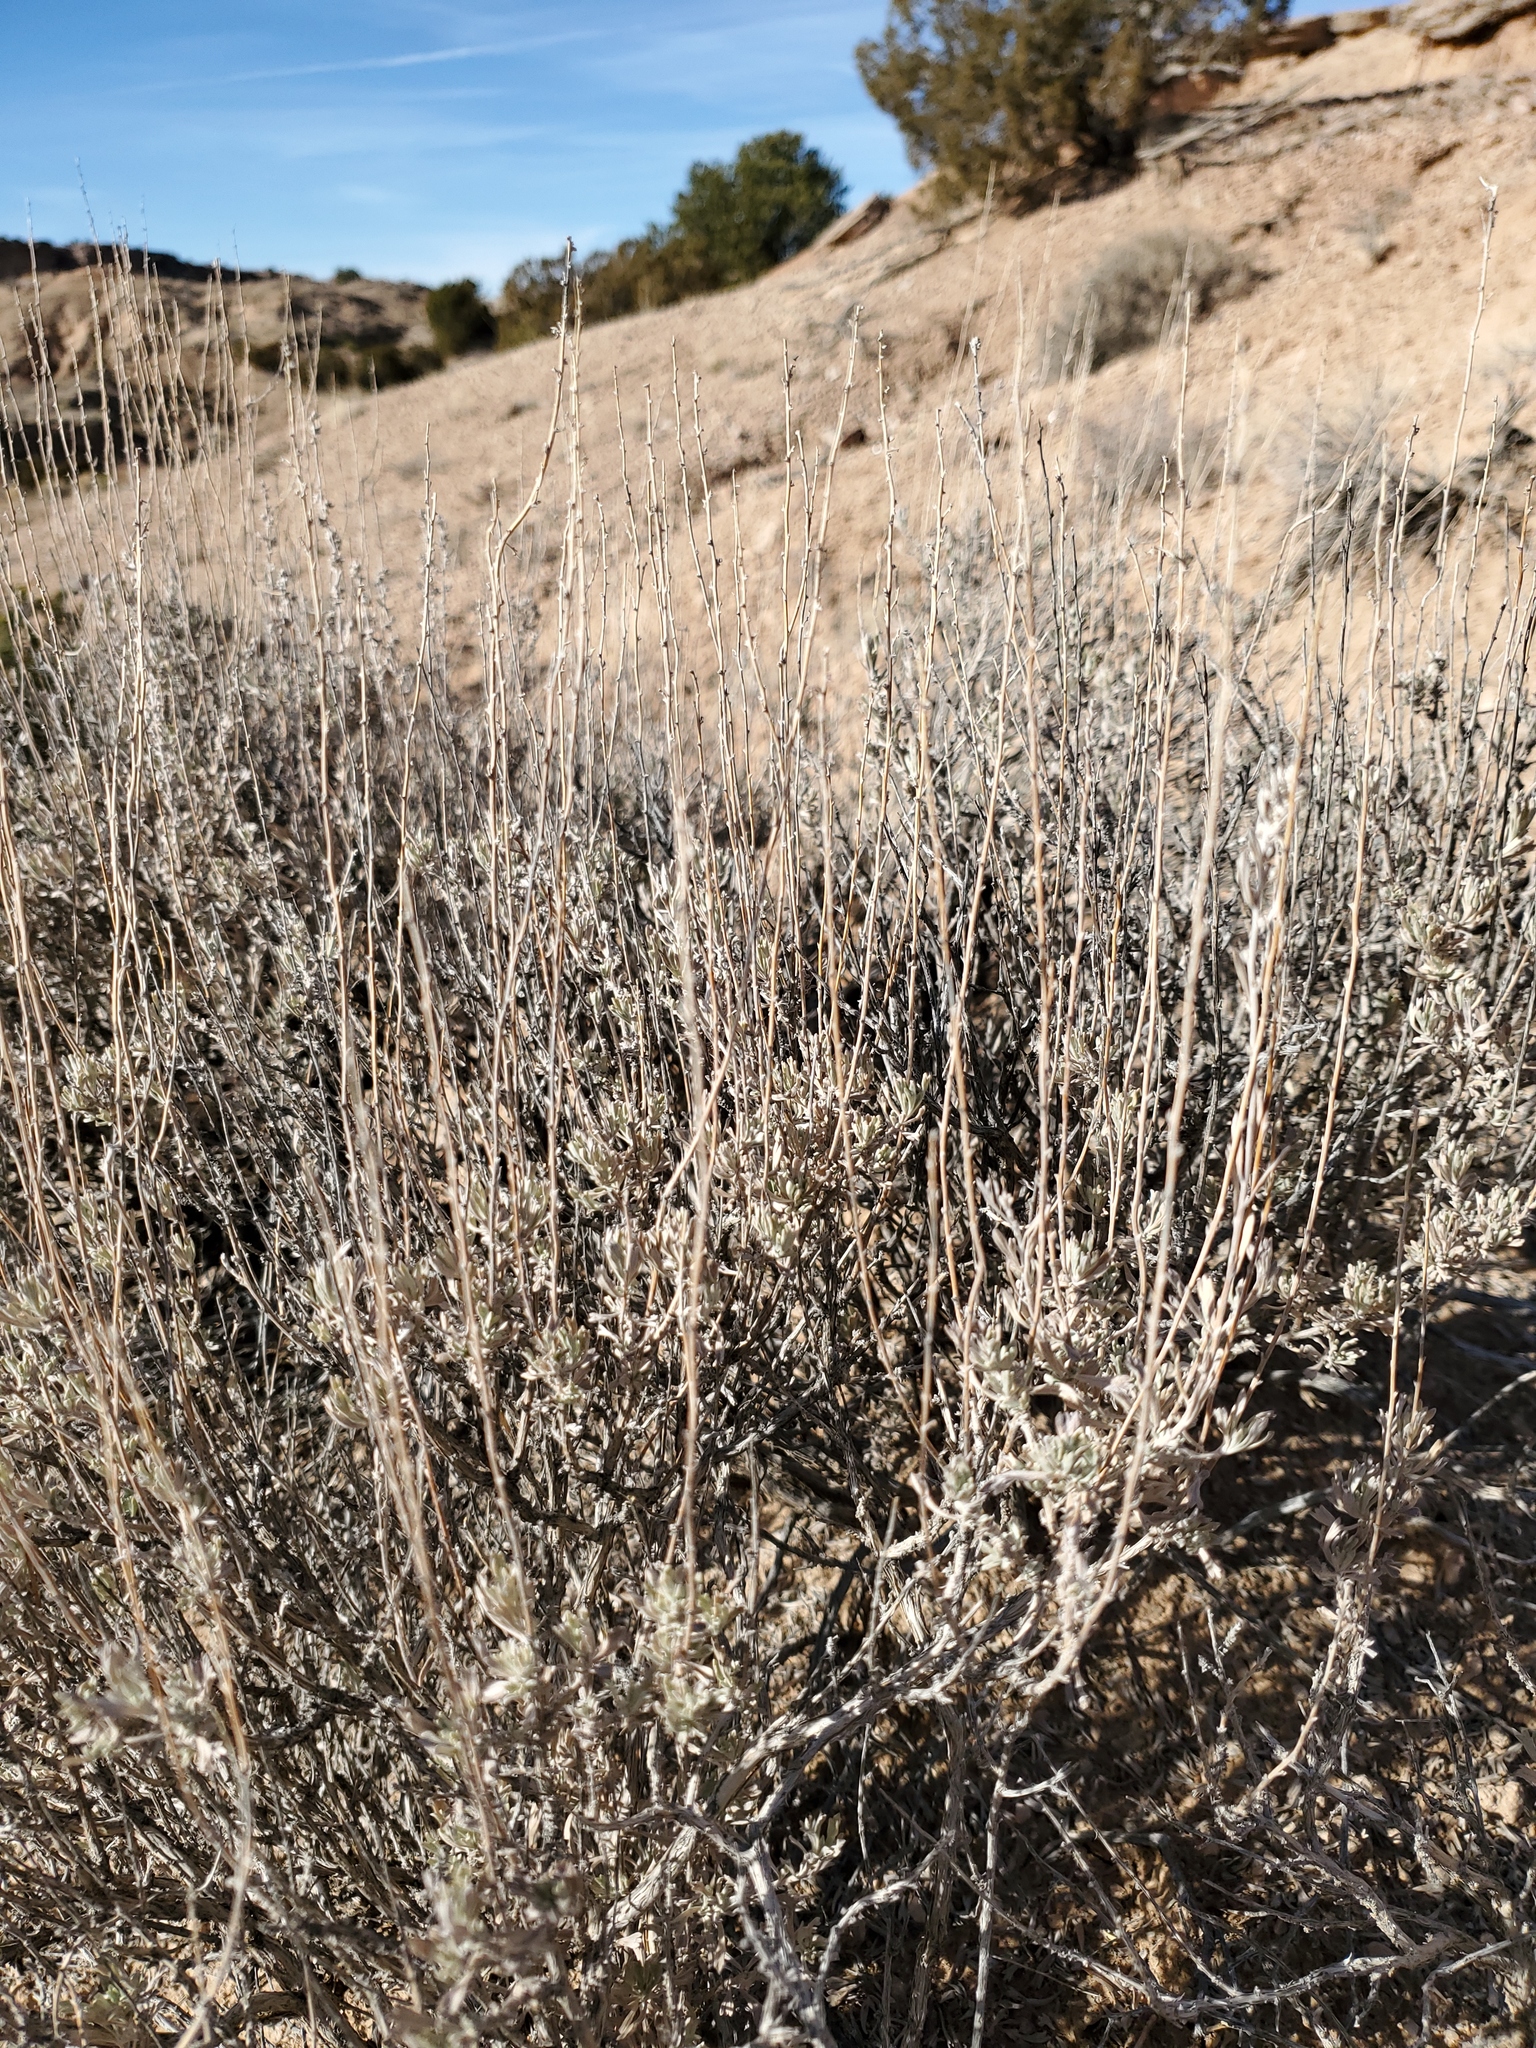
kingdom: Plantae
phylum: Tracheophyta
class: Magnoliopsida
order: Asterales
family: Asteraceae
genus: Artemisia
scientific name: Artemisia tridentata
